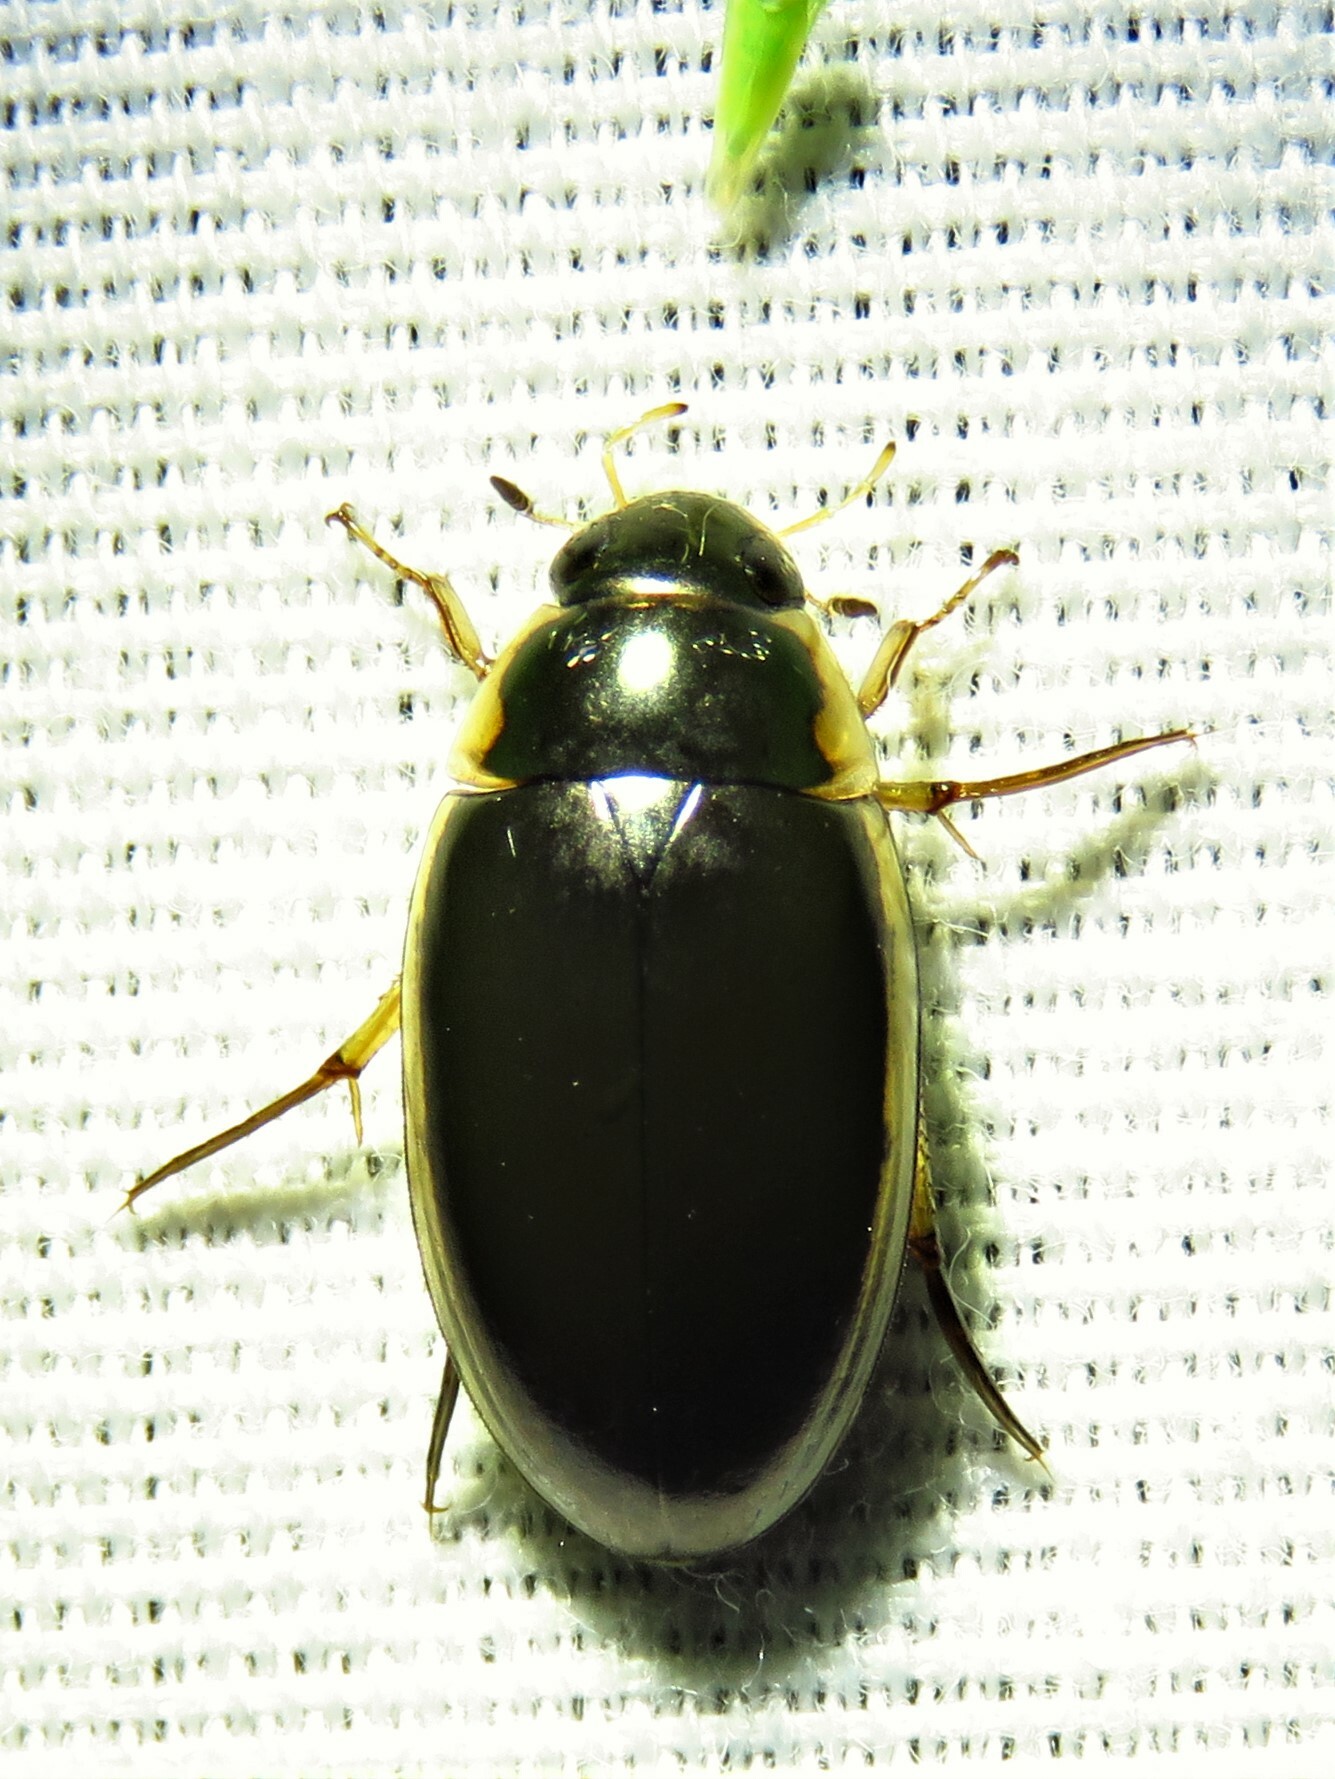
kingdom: Animalia
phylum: Arthropoda
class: Insecta
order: Coleoptera
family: Hydrophilidae
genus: Tropisternus
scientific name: Tropisternus lateralis
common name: Lateral-banded water scavenger beetle
